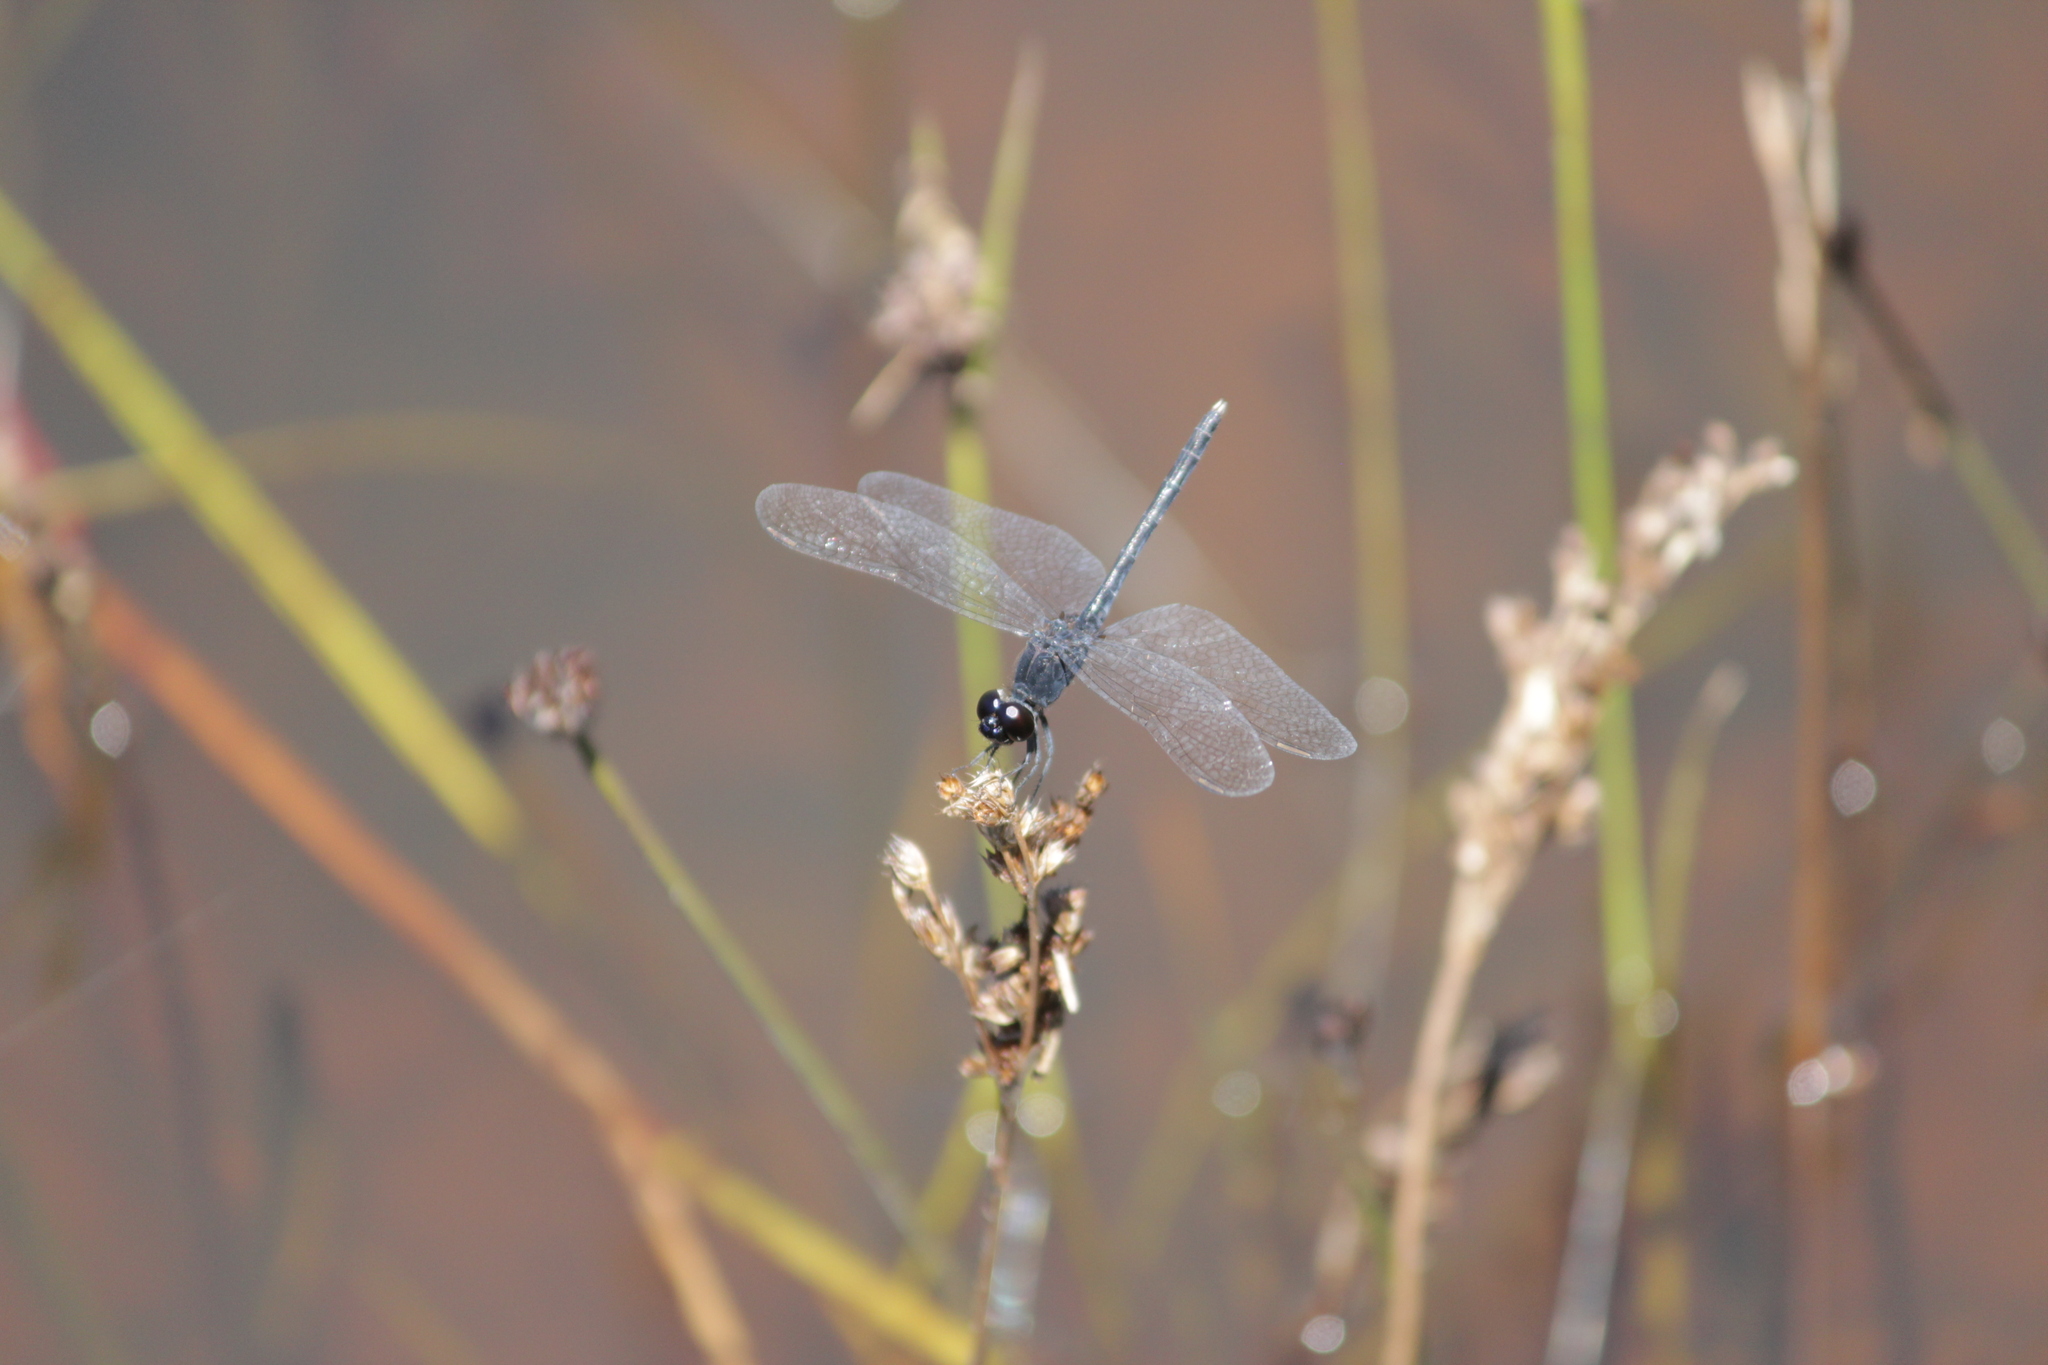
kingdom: Animalia
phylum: Arthropoda
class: Insecta
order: Odonata
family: Libellulidae
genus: Diplacodes
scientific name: Diplacodes lefebvrii
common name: Black percher
